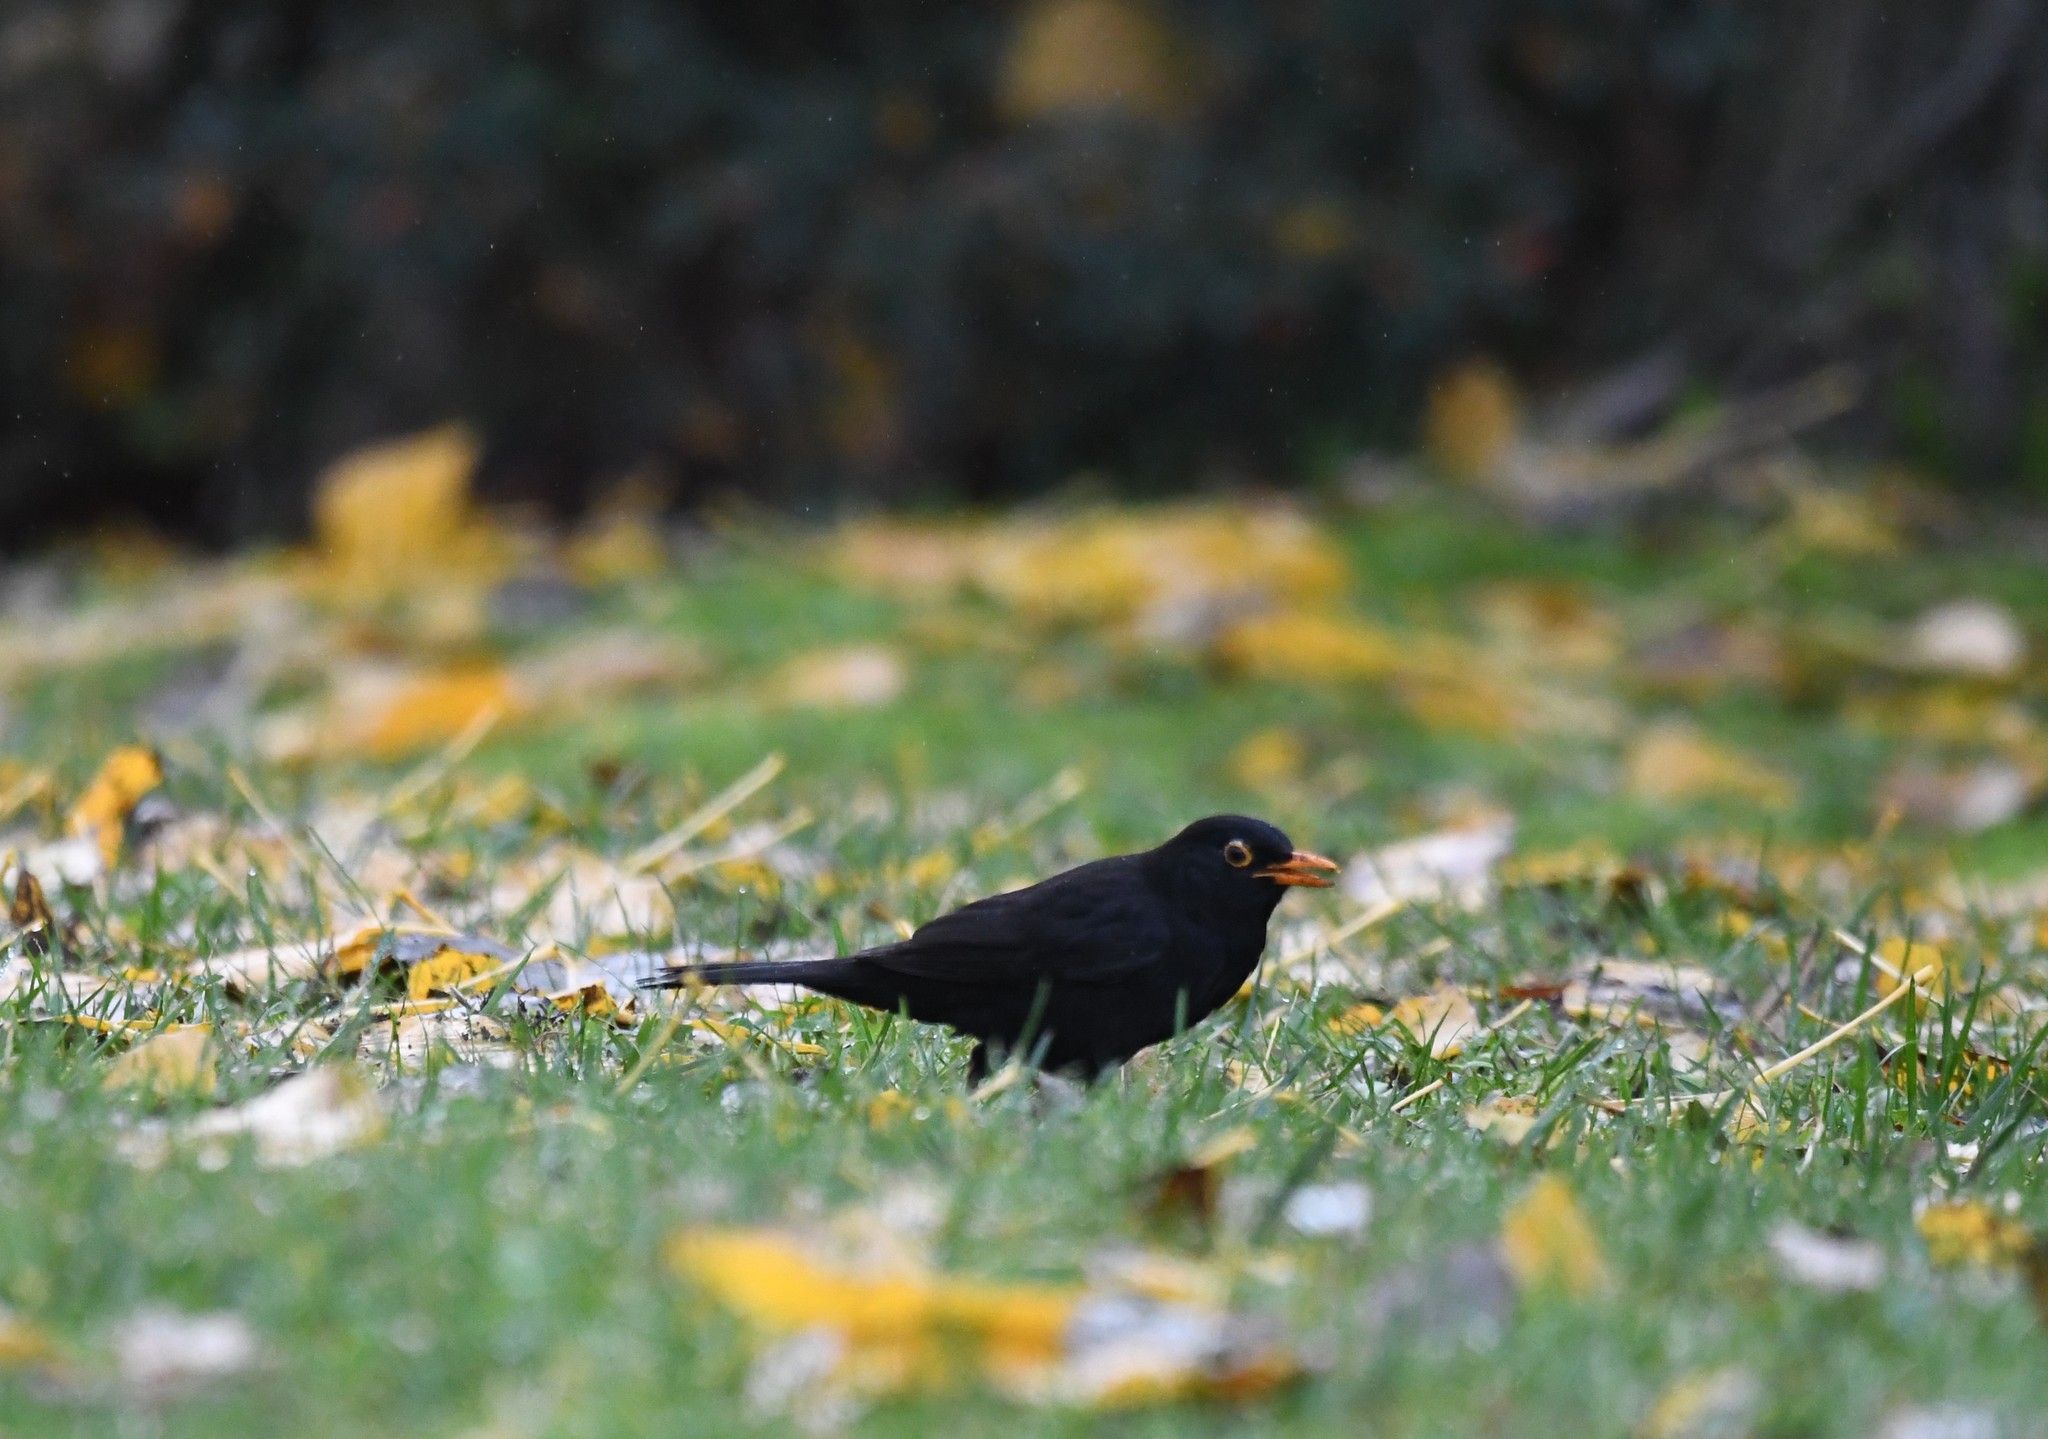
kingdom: Animalia
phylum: Chordata
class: Aves
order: Passeriformes
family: Turdidae
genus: Turdus
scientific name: Turdus merula
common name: Common blackbird
